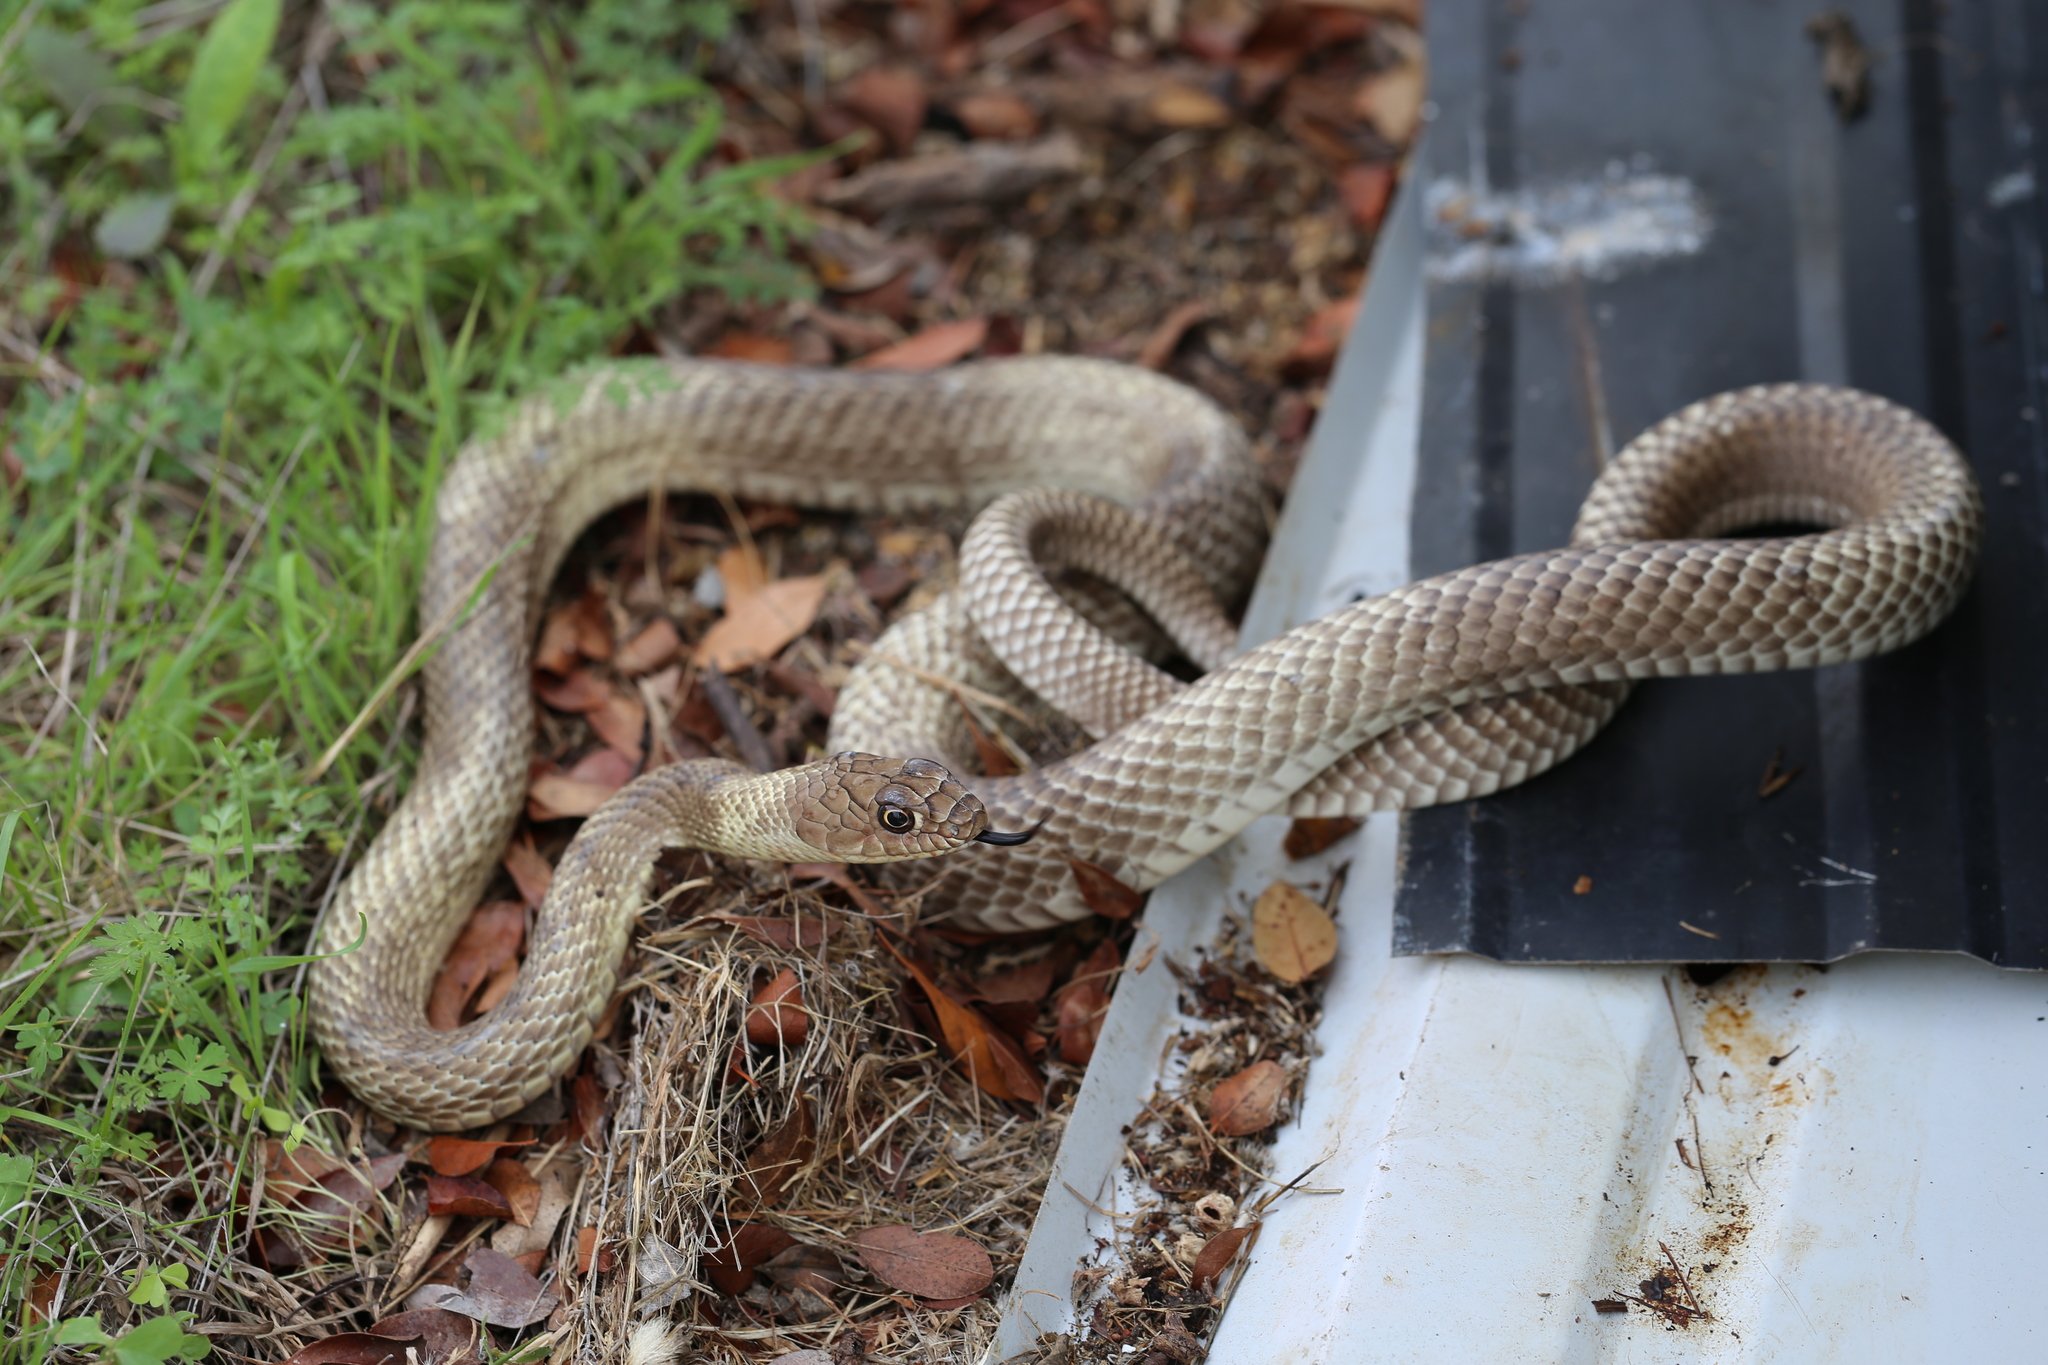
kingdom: Animalia
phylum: Chordata
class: Squamata
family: Colubridae
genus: Masticophis
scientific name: Masticophis flagellum
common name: Coachwhip
